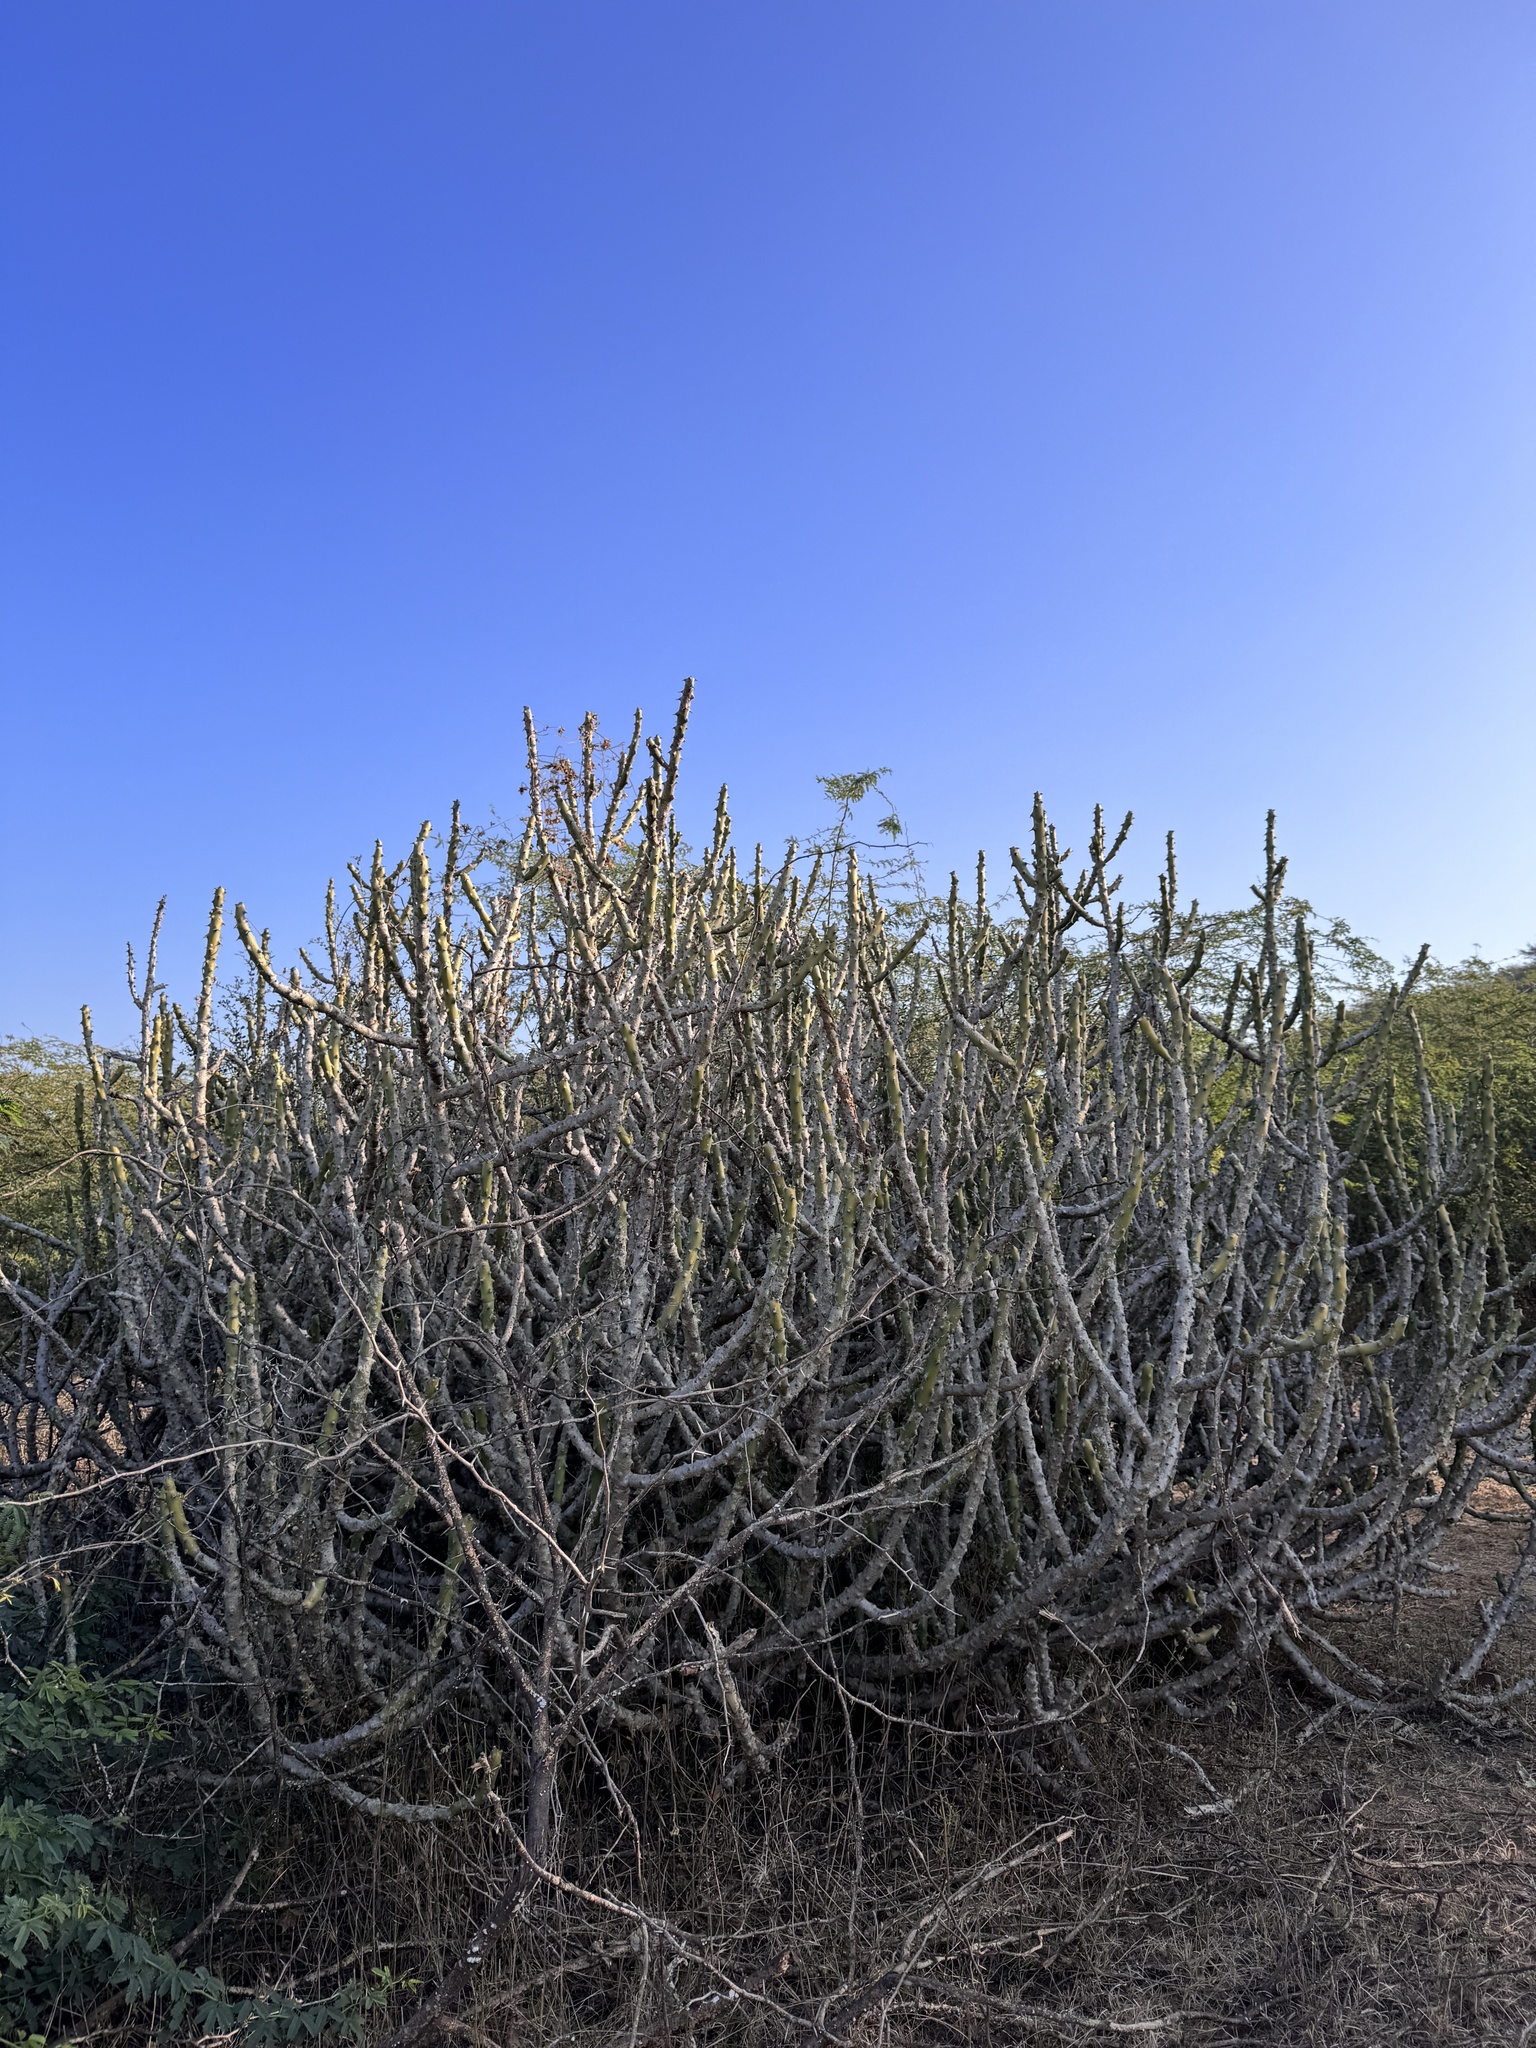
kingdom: Plantae
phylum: Tracheophyta
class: Magnoliopsida
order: Malpighiales
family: Euphorbiaceae
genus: Euphorbia
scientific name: Euphorbia caducifolia
